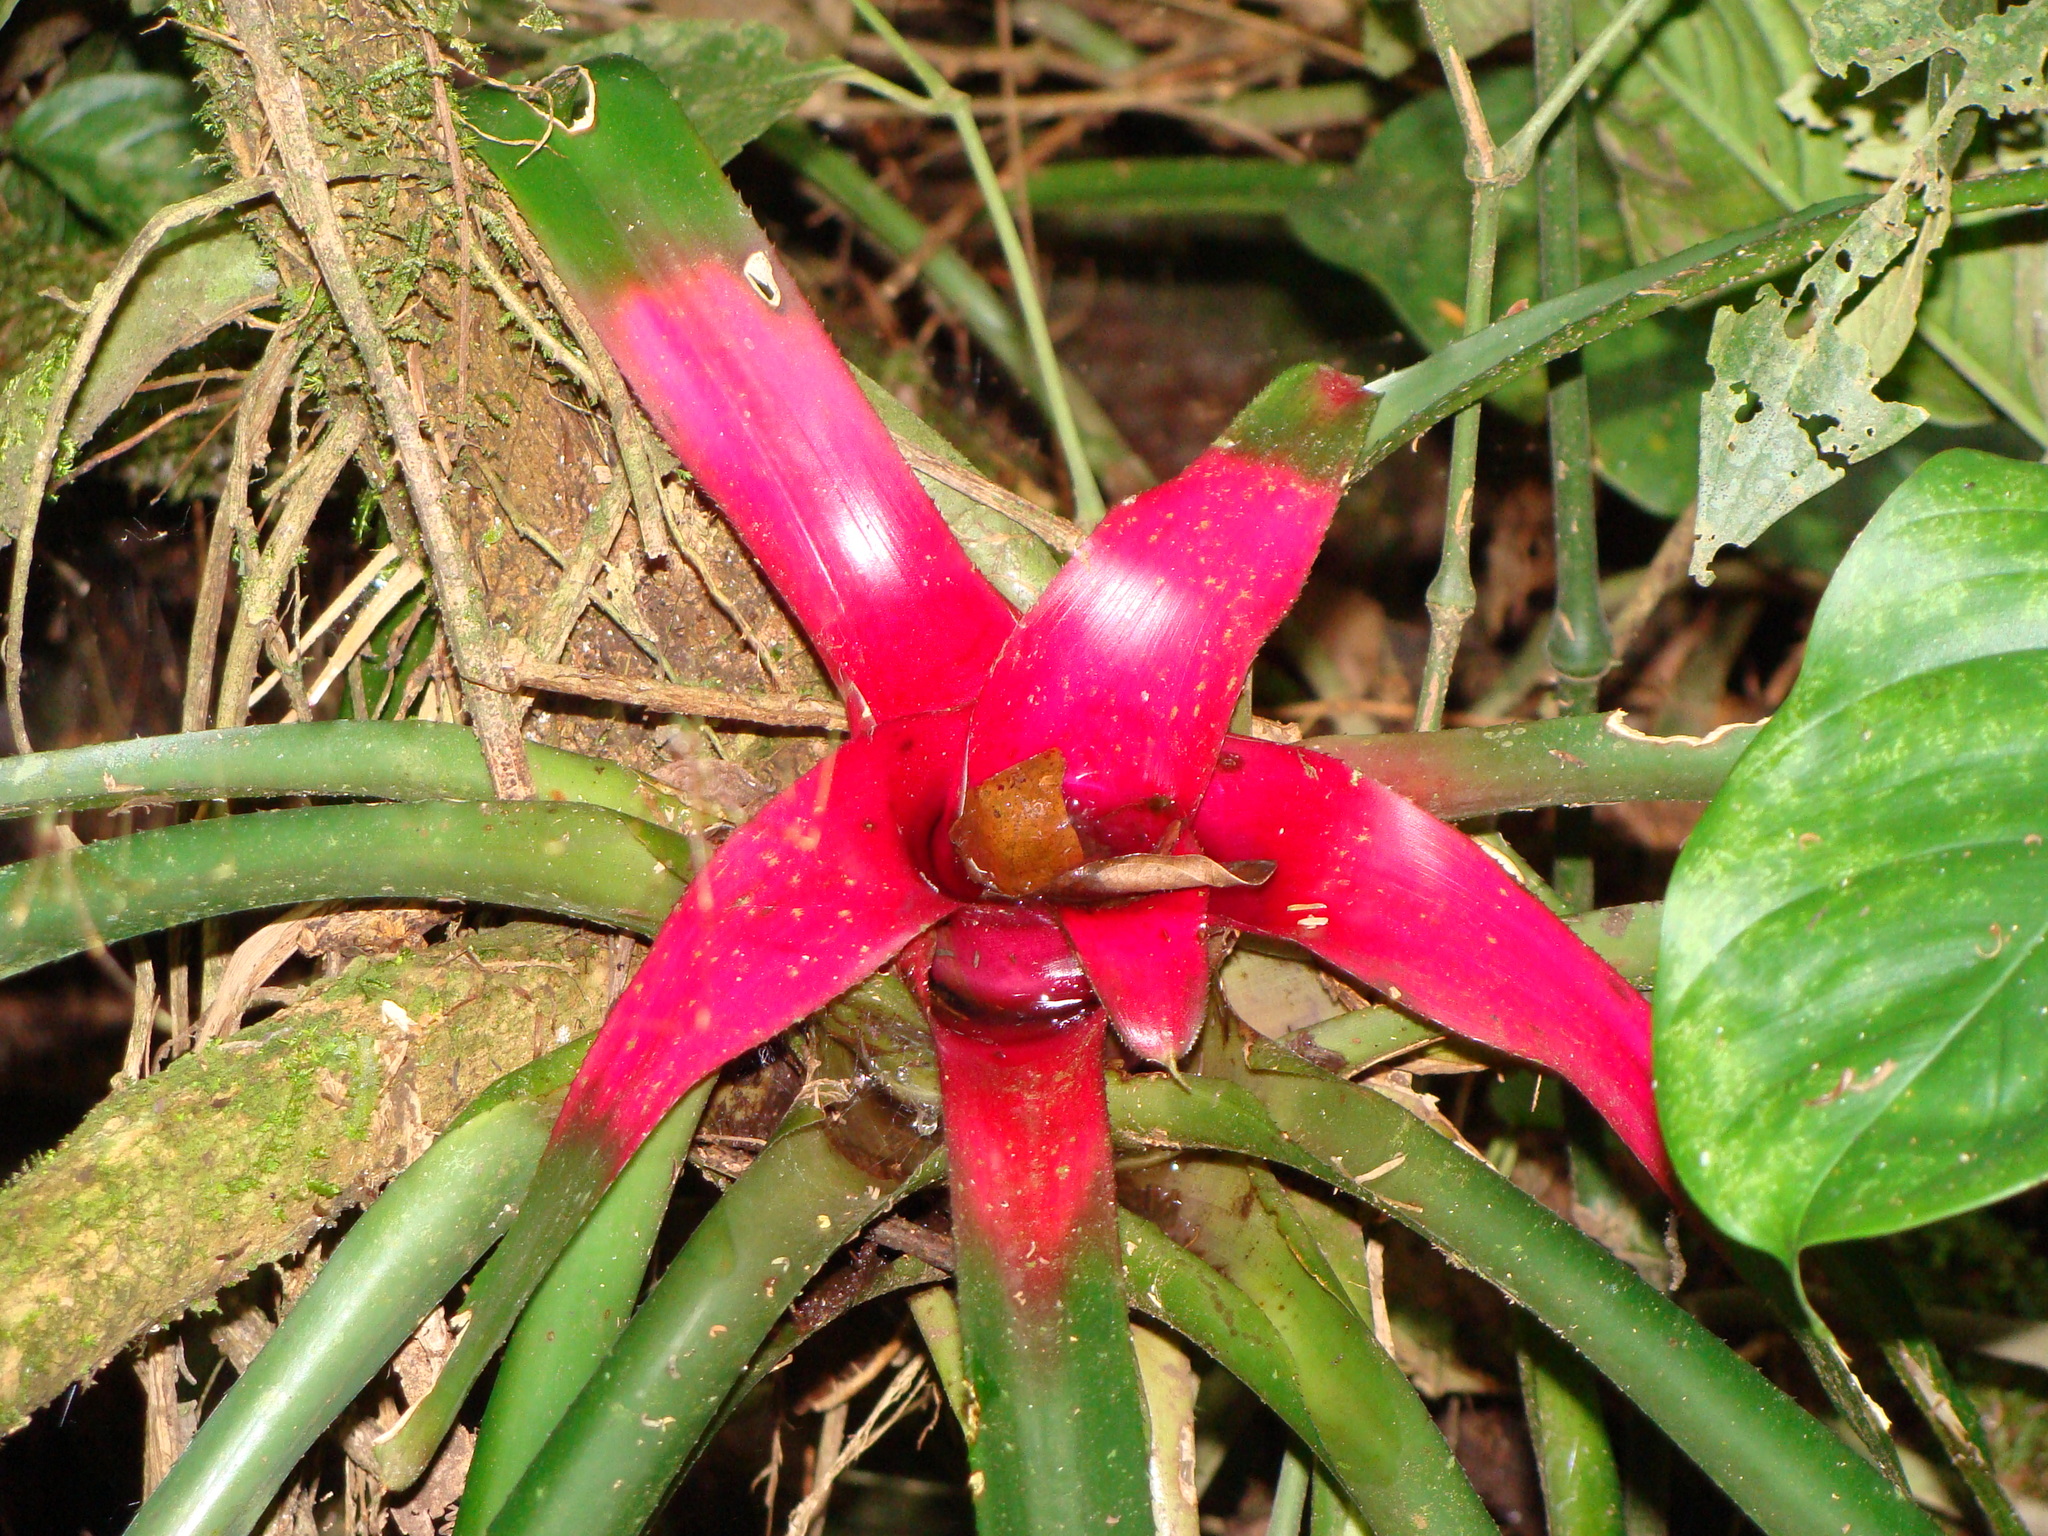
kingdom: Plantae
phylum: Tracheophyta
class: Liliopsida
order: Poales
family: Bromeliaceae
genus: Neoregelia
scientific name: Neoregelia carolinae
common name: Blushing bromeliad
